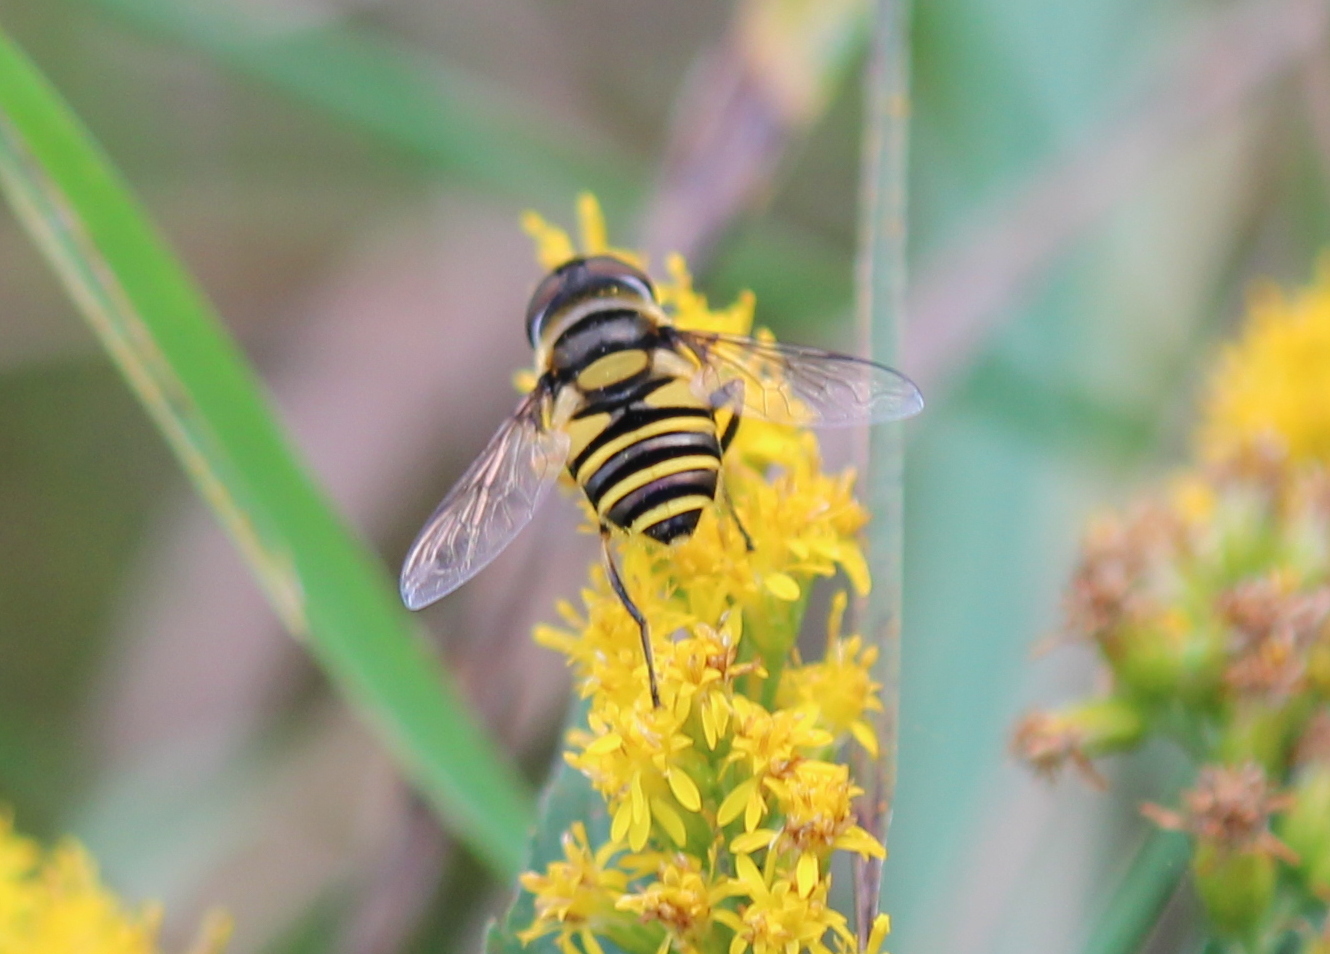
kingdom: Animalia
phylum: Arthropoda
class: Insecta
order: Diptera
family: Syrphidae
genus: Eristalis
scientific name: Eristalis transversa
